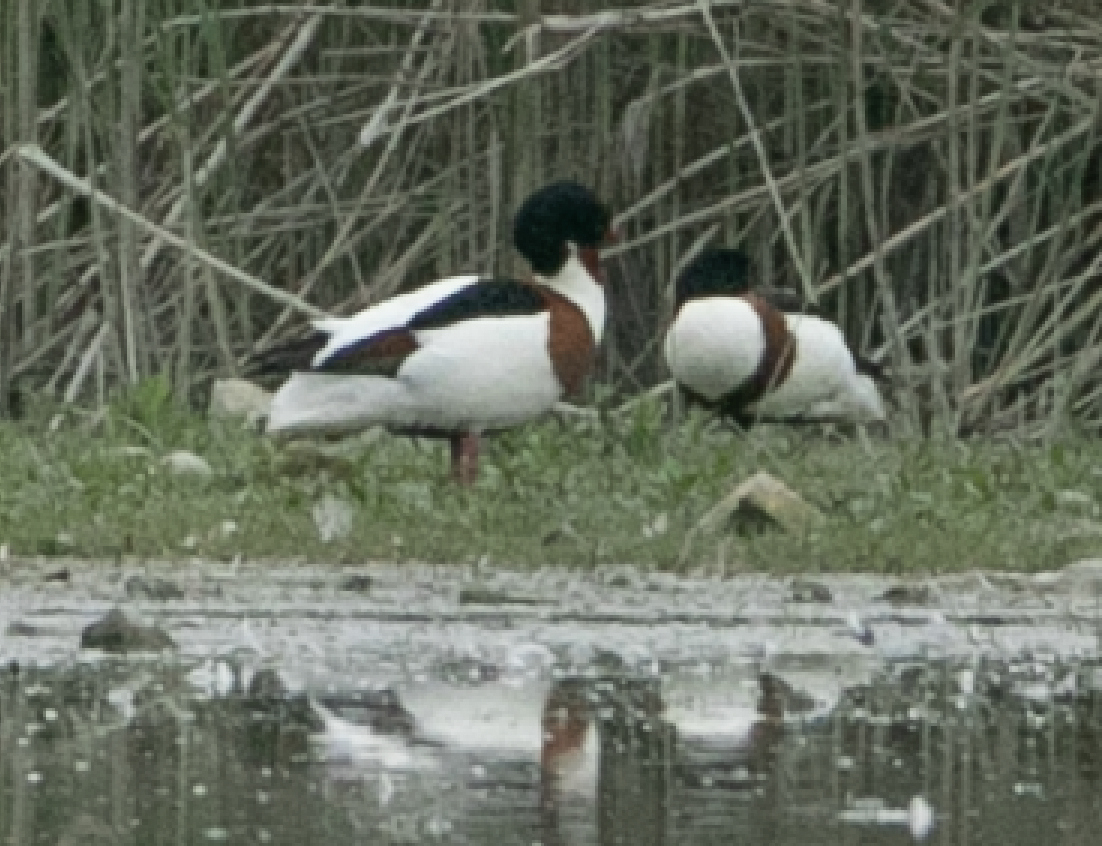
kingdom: Animalia
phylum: Chordata
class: Aves
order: Anseriformes
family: Anatidae
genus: Tadorna
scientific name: Tadorna tadorna
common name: Common shelduck
